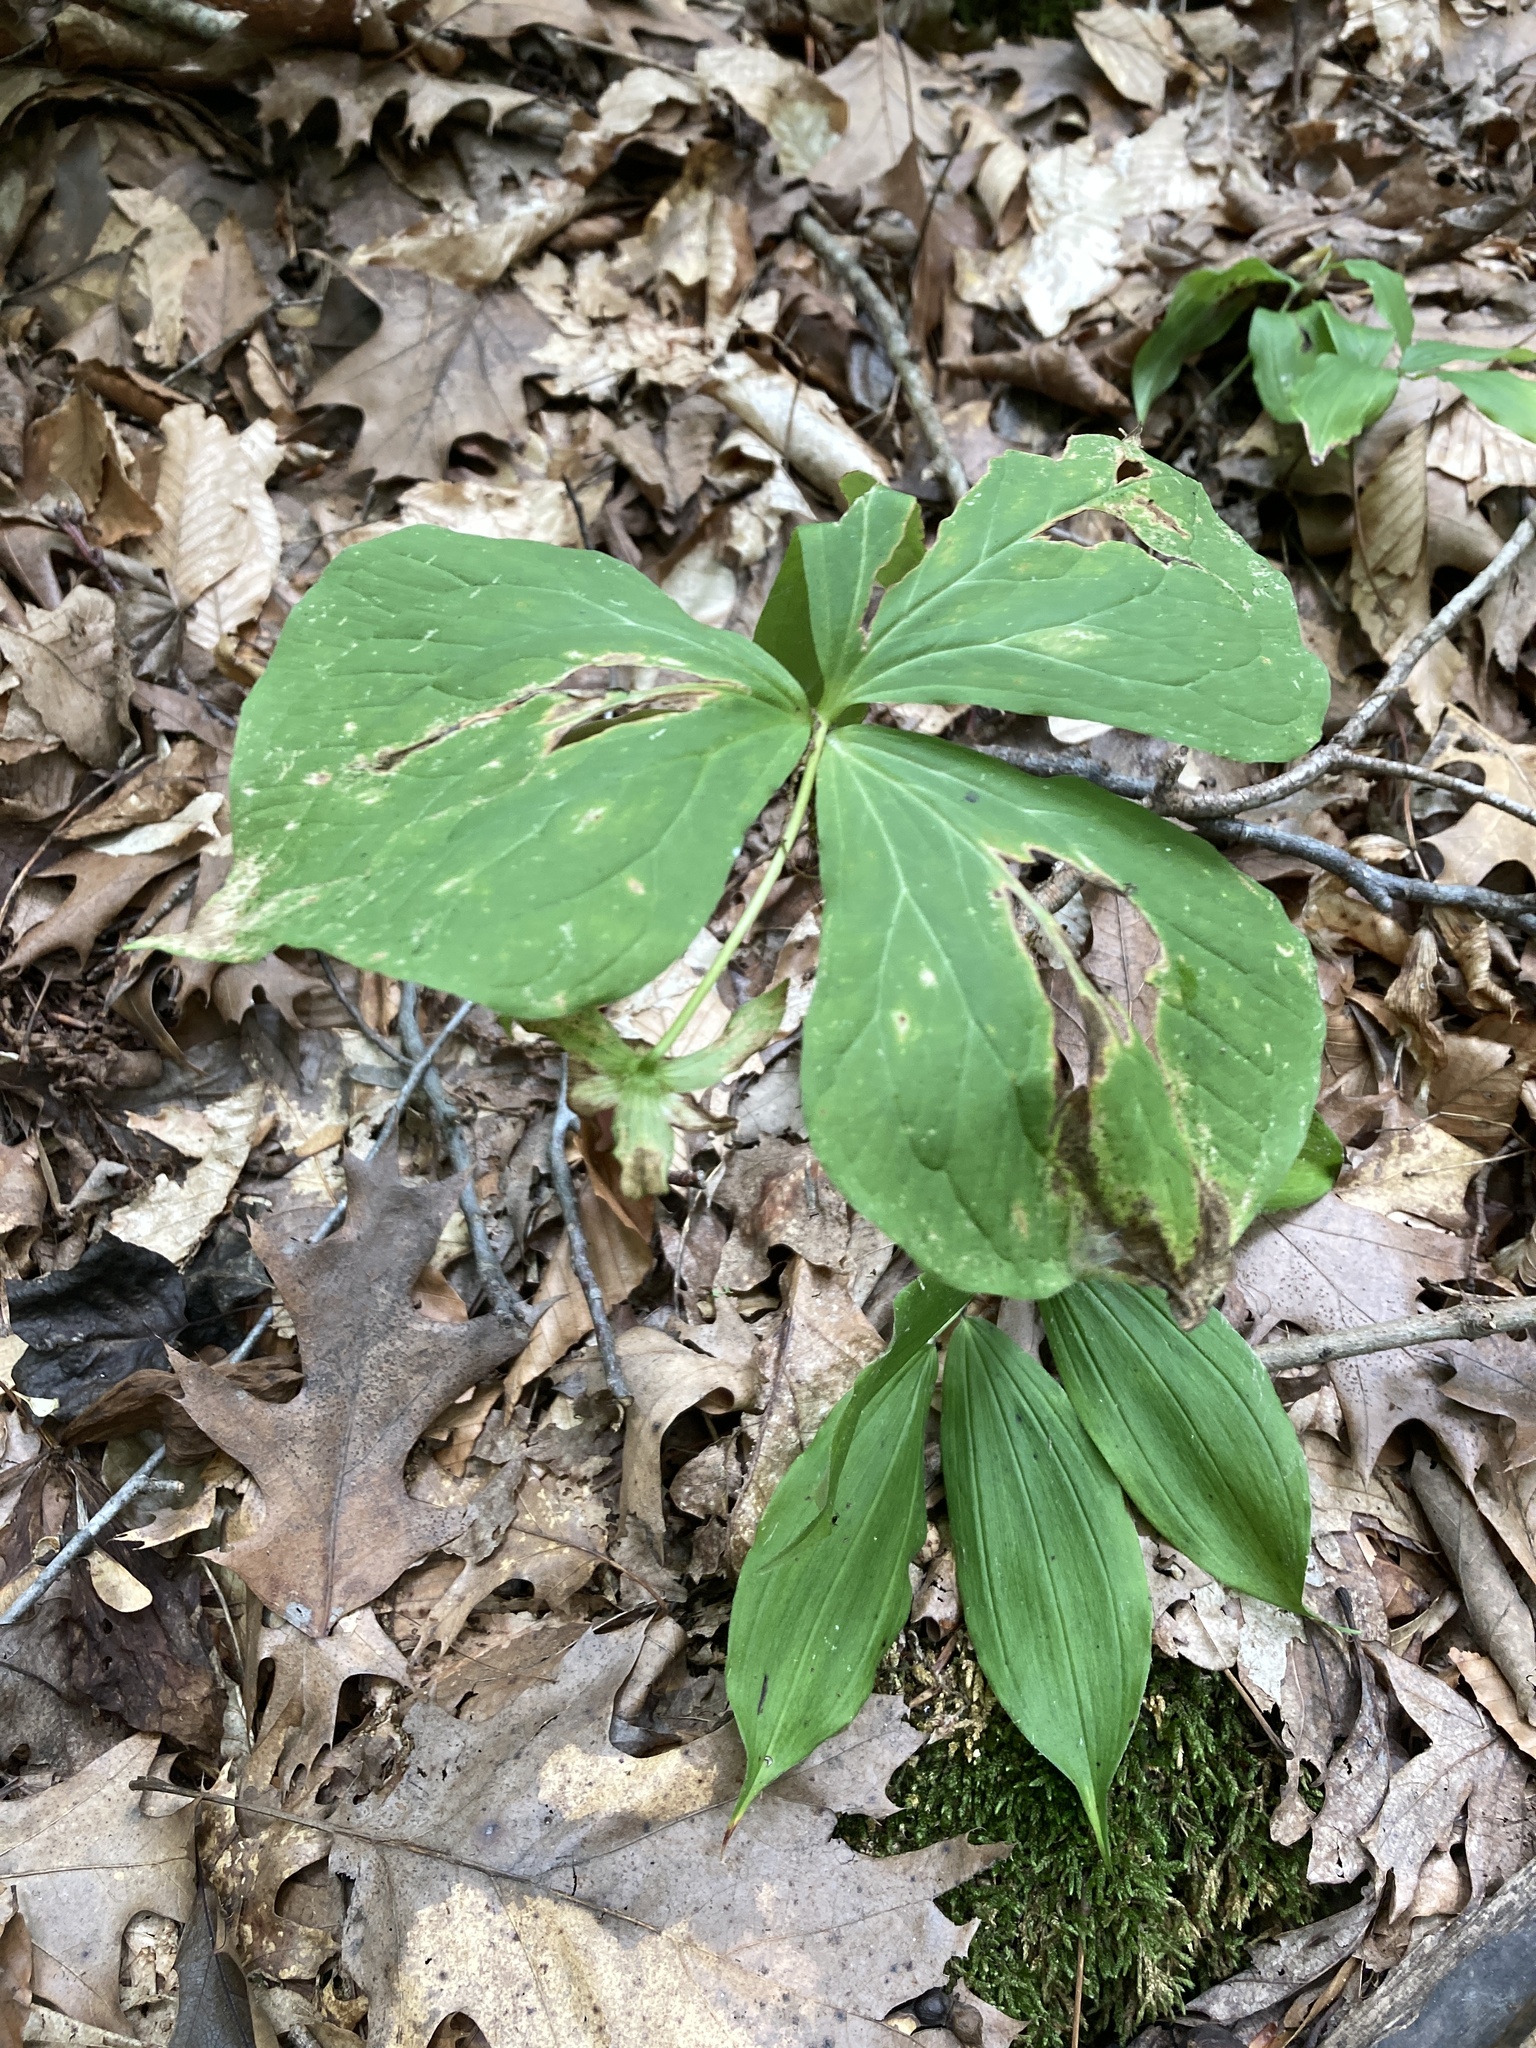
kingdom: Plantae
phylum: Tracheophyta
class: Liliopsida
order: Liliales
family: Melanthiaceae
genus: Trillium
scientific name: Trillium flexipes
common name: Drooping trillium
